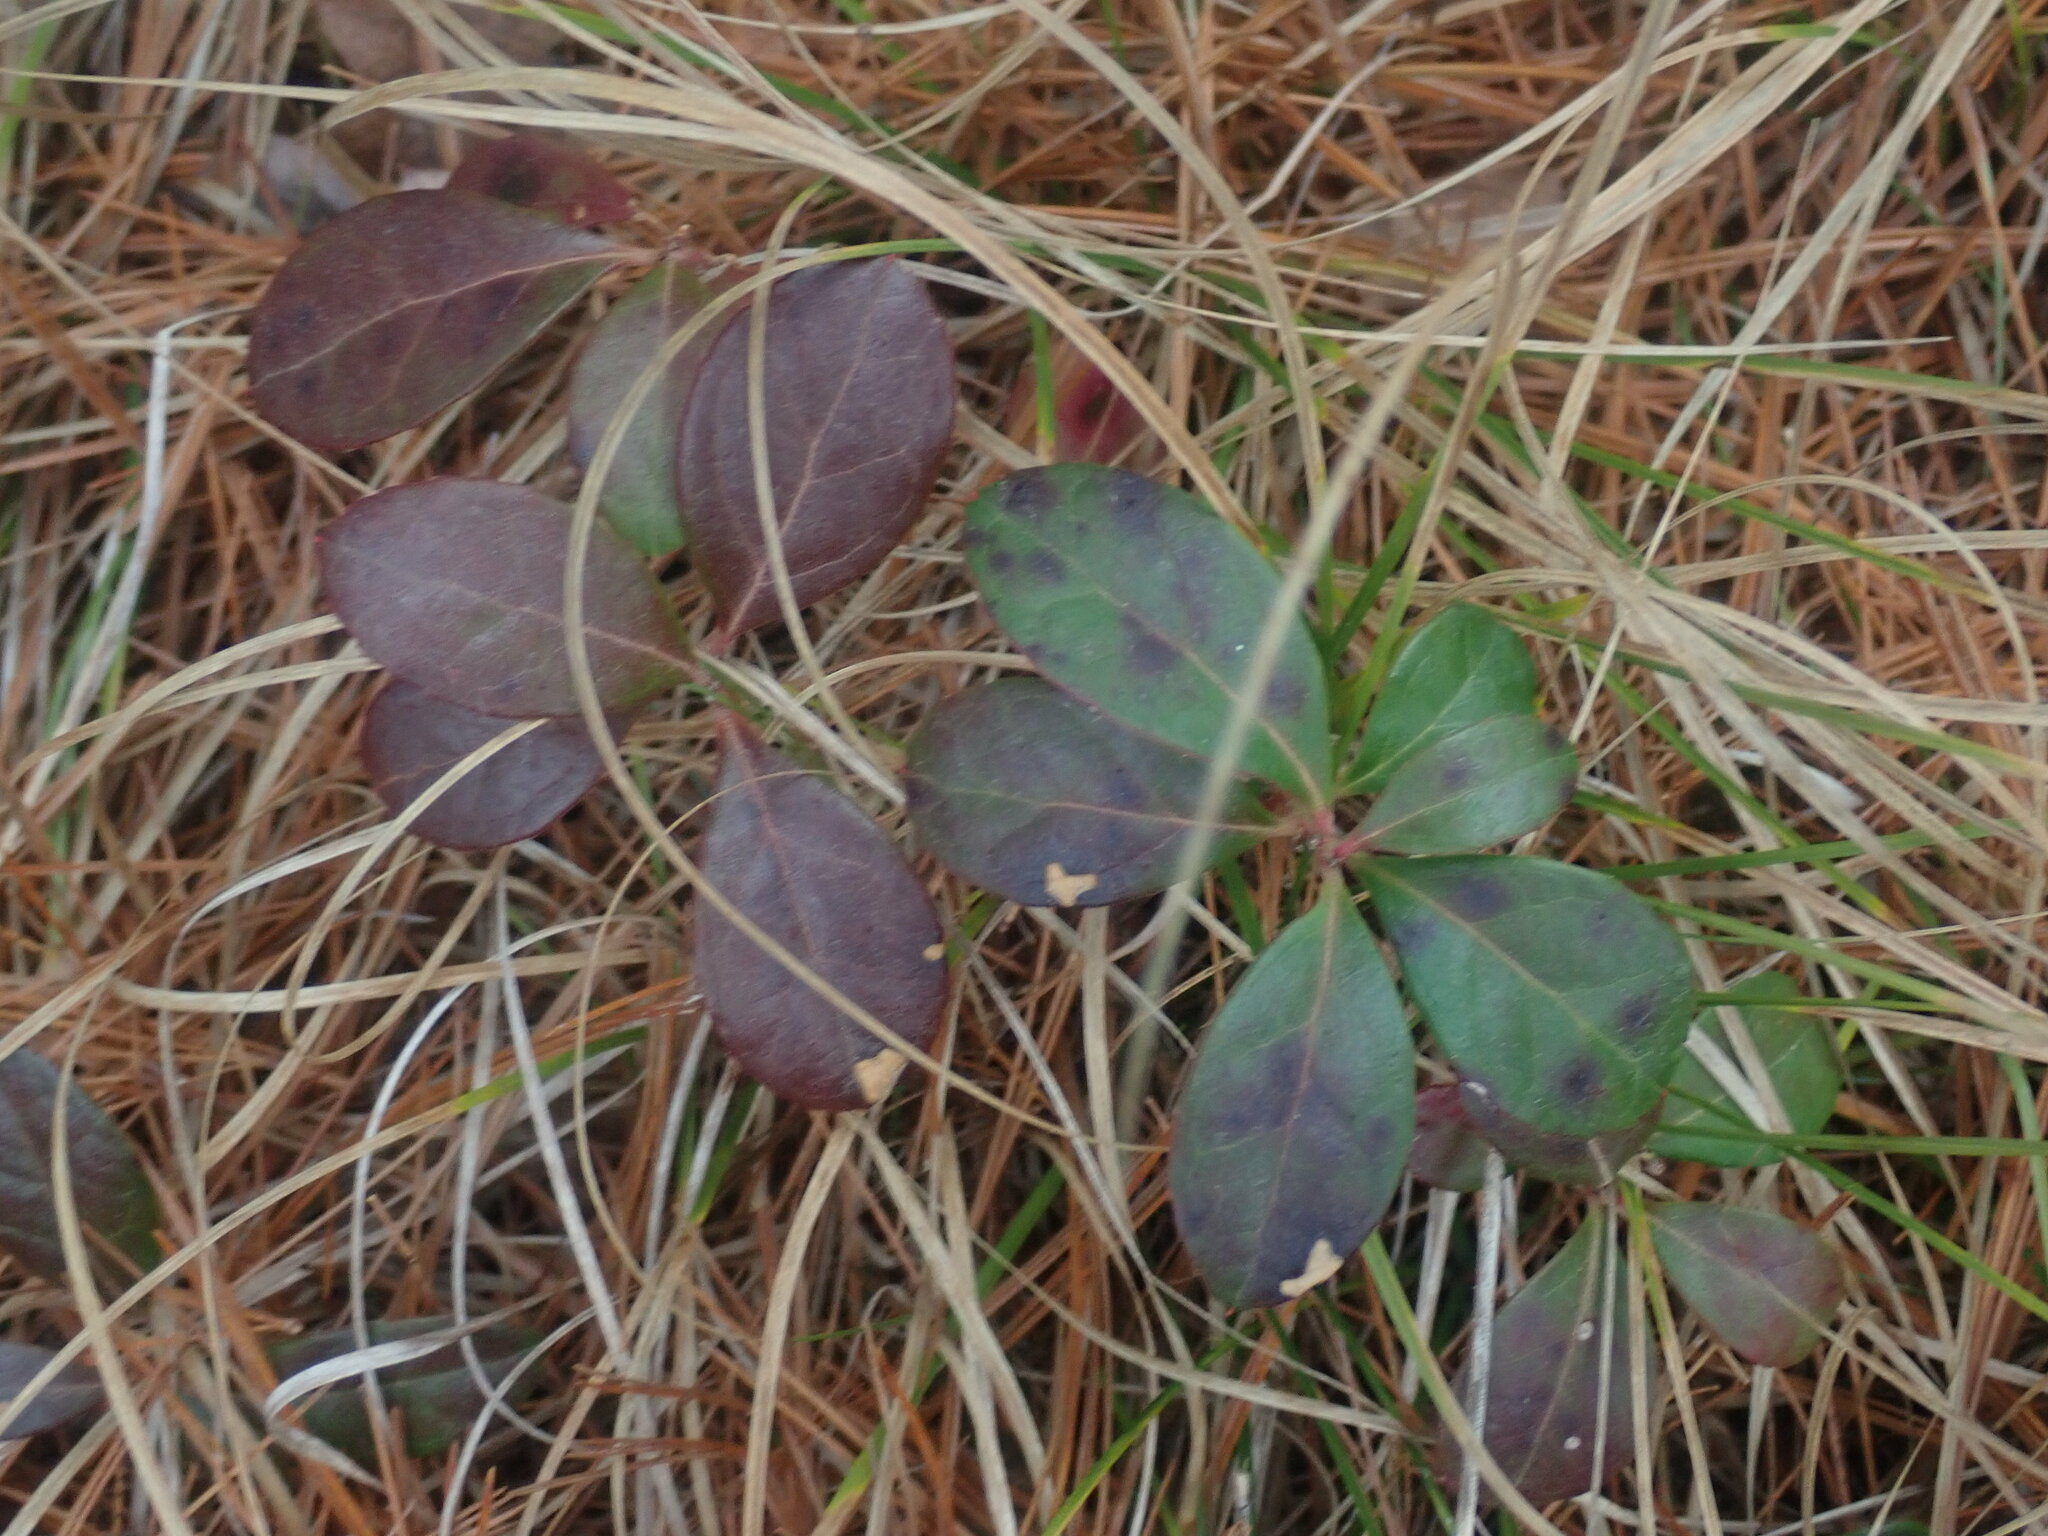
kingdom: Plantae
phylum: Tracheophyta
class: Magnoliopsida
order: Ericales
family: Ericaceae
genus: Gaultheria
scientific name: Gaultheria procumbens
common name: Checkerberry
